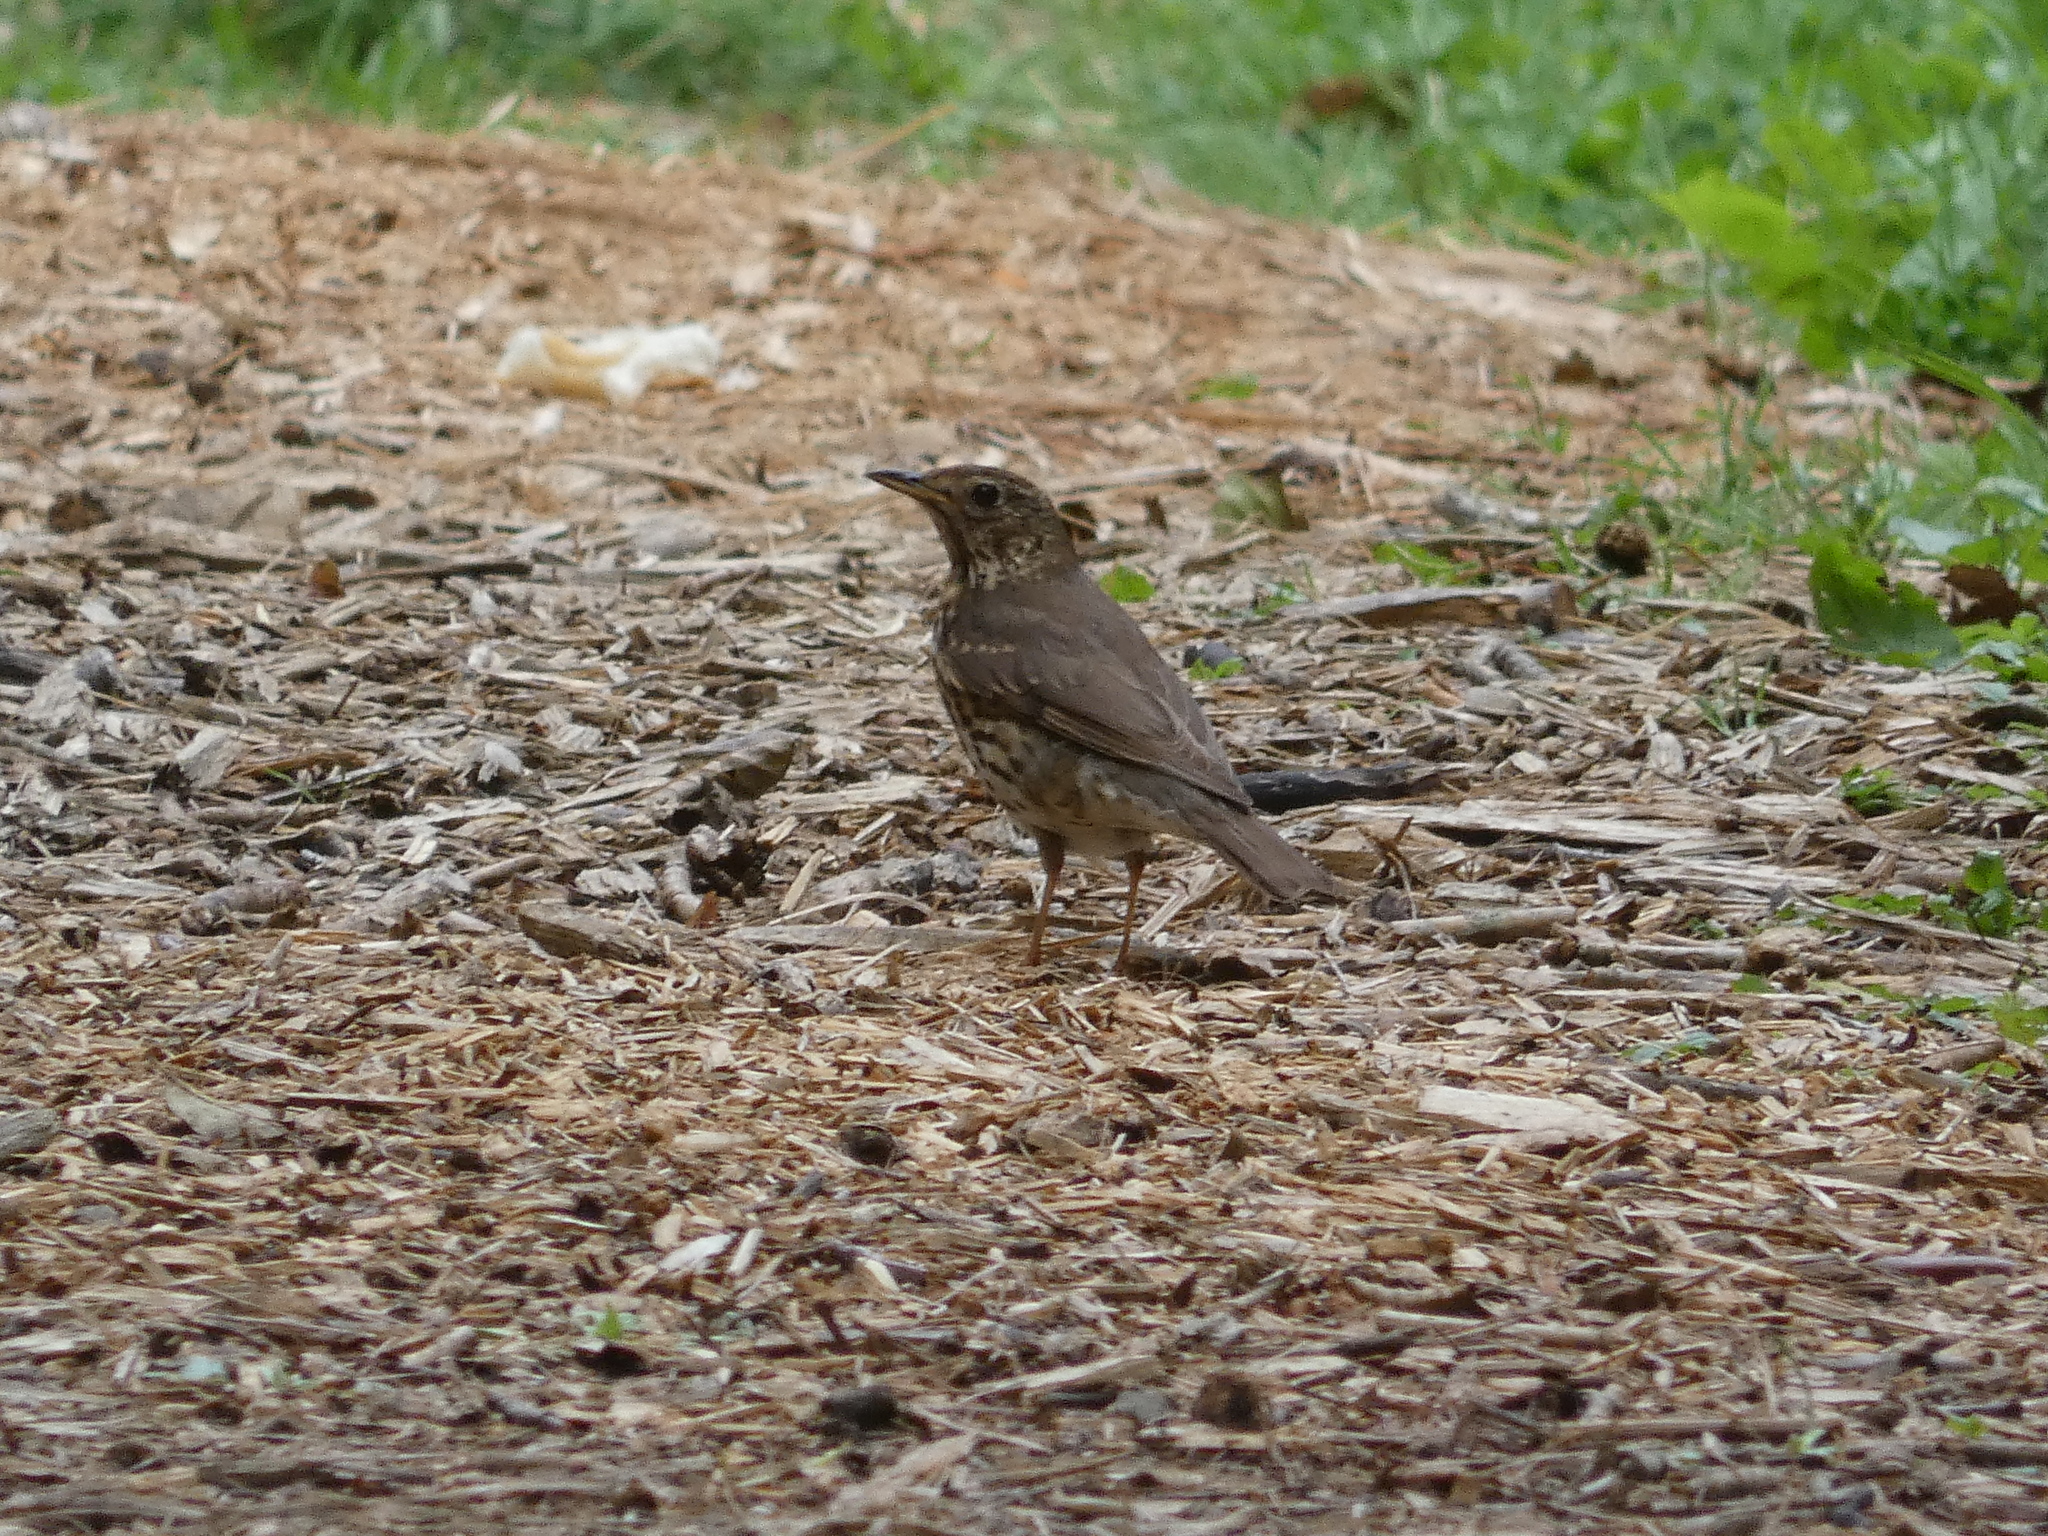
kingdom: Animalia
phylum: Chordata
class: Aves
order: Passeriformes
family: Turdidae
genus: Turdus
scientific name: Turdus philomelos
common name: Song thrush
